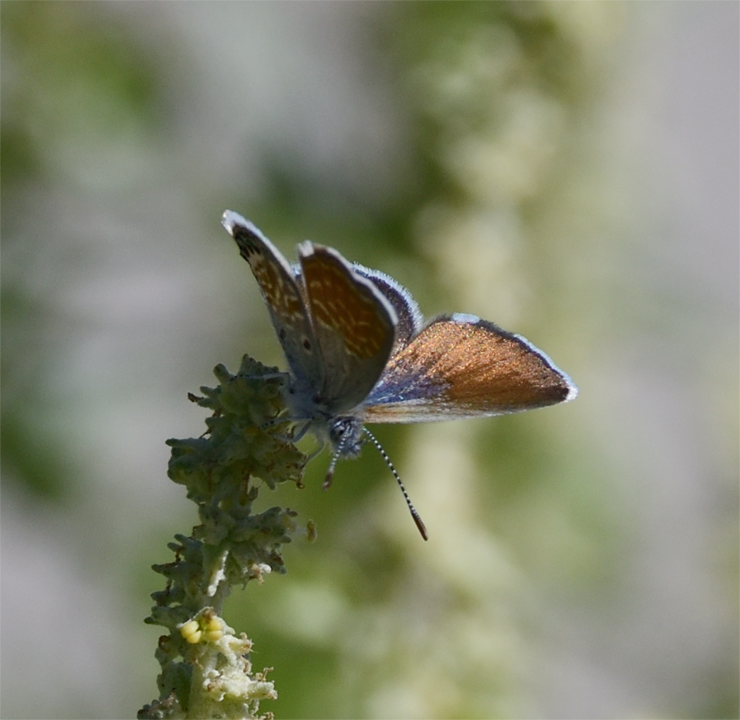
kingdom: Animalia
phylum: Arthropoda
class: Insecta
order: Lepidoptera
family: Lycaenidae
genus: Brephidium
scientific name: Brephidium exilis
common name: Pygmy blue
